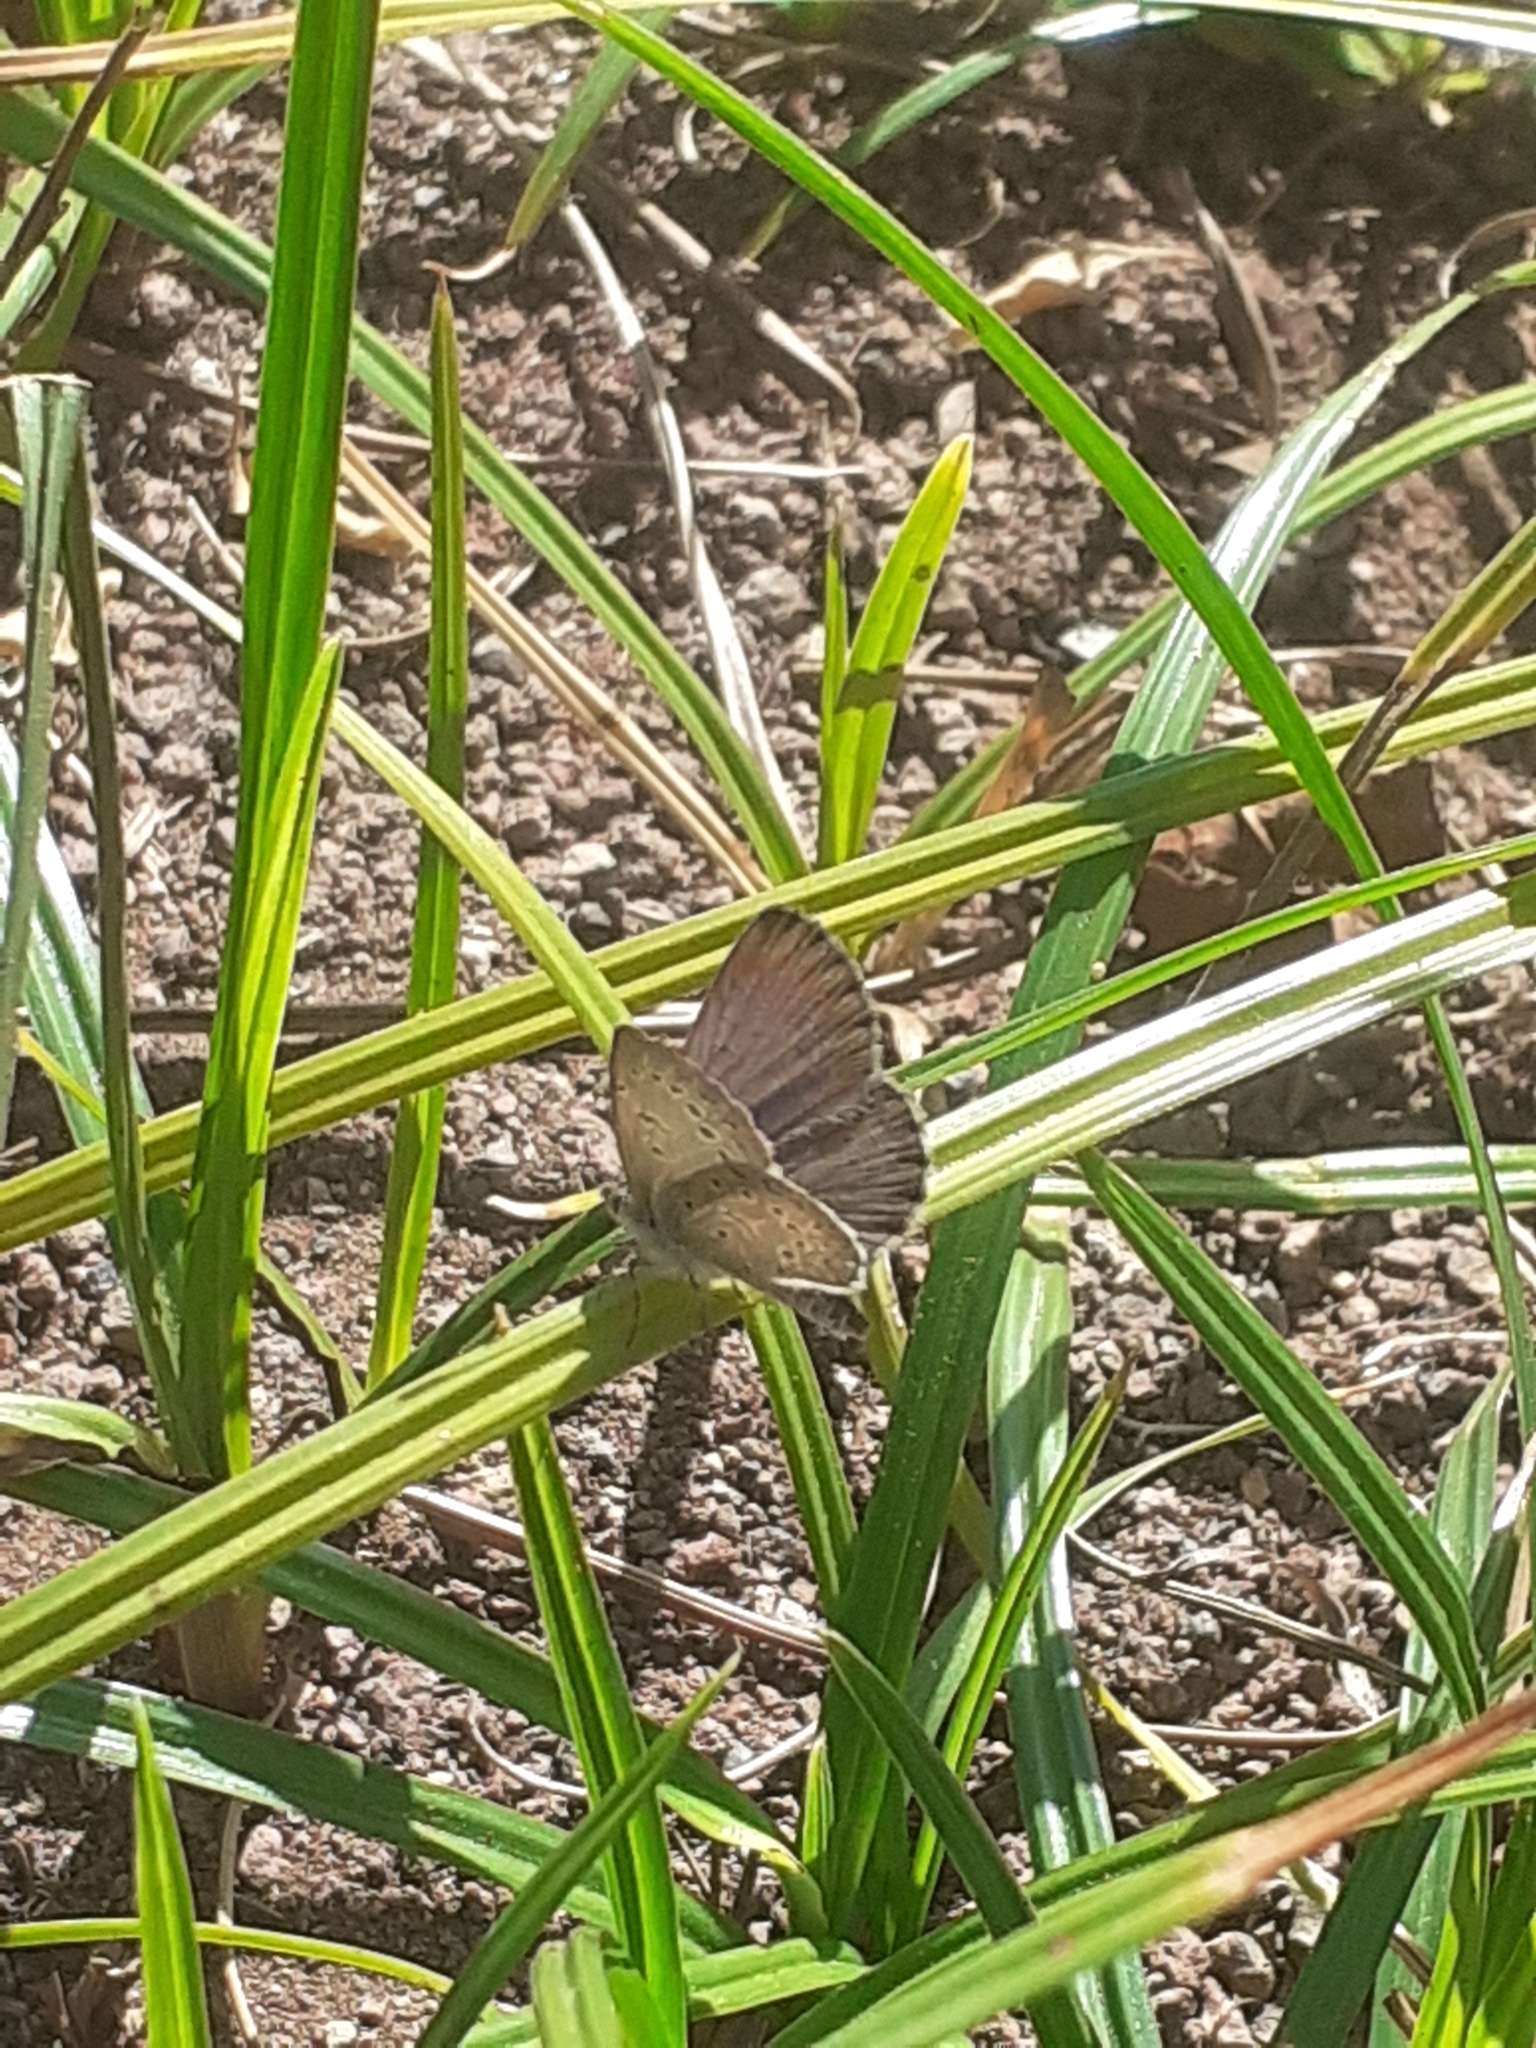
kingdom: Animalia
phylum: Arthropoda
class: Insecta
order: Lepidoptera
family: Lycaenidae
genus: Zizeeria
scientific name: Zizeeria knysna
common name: African grass blue
